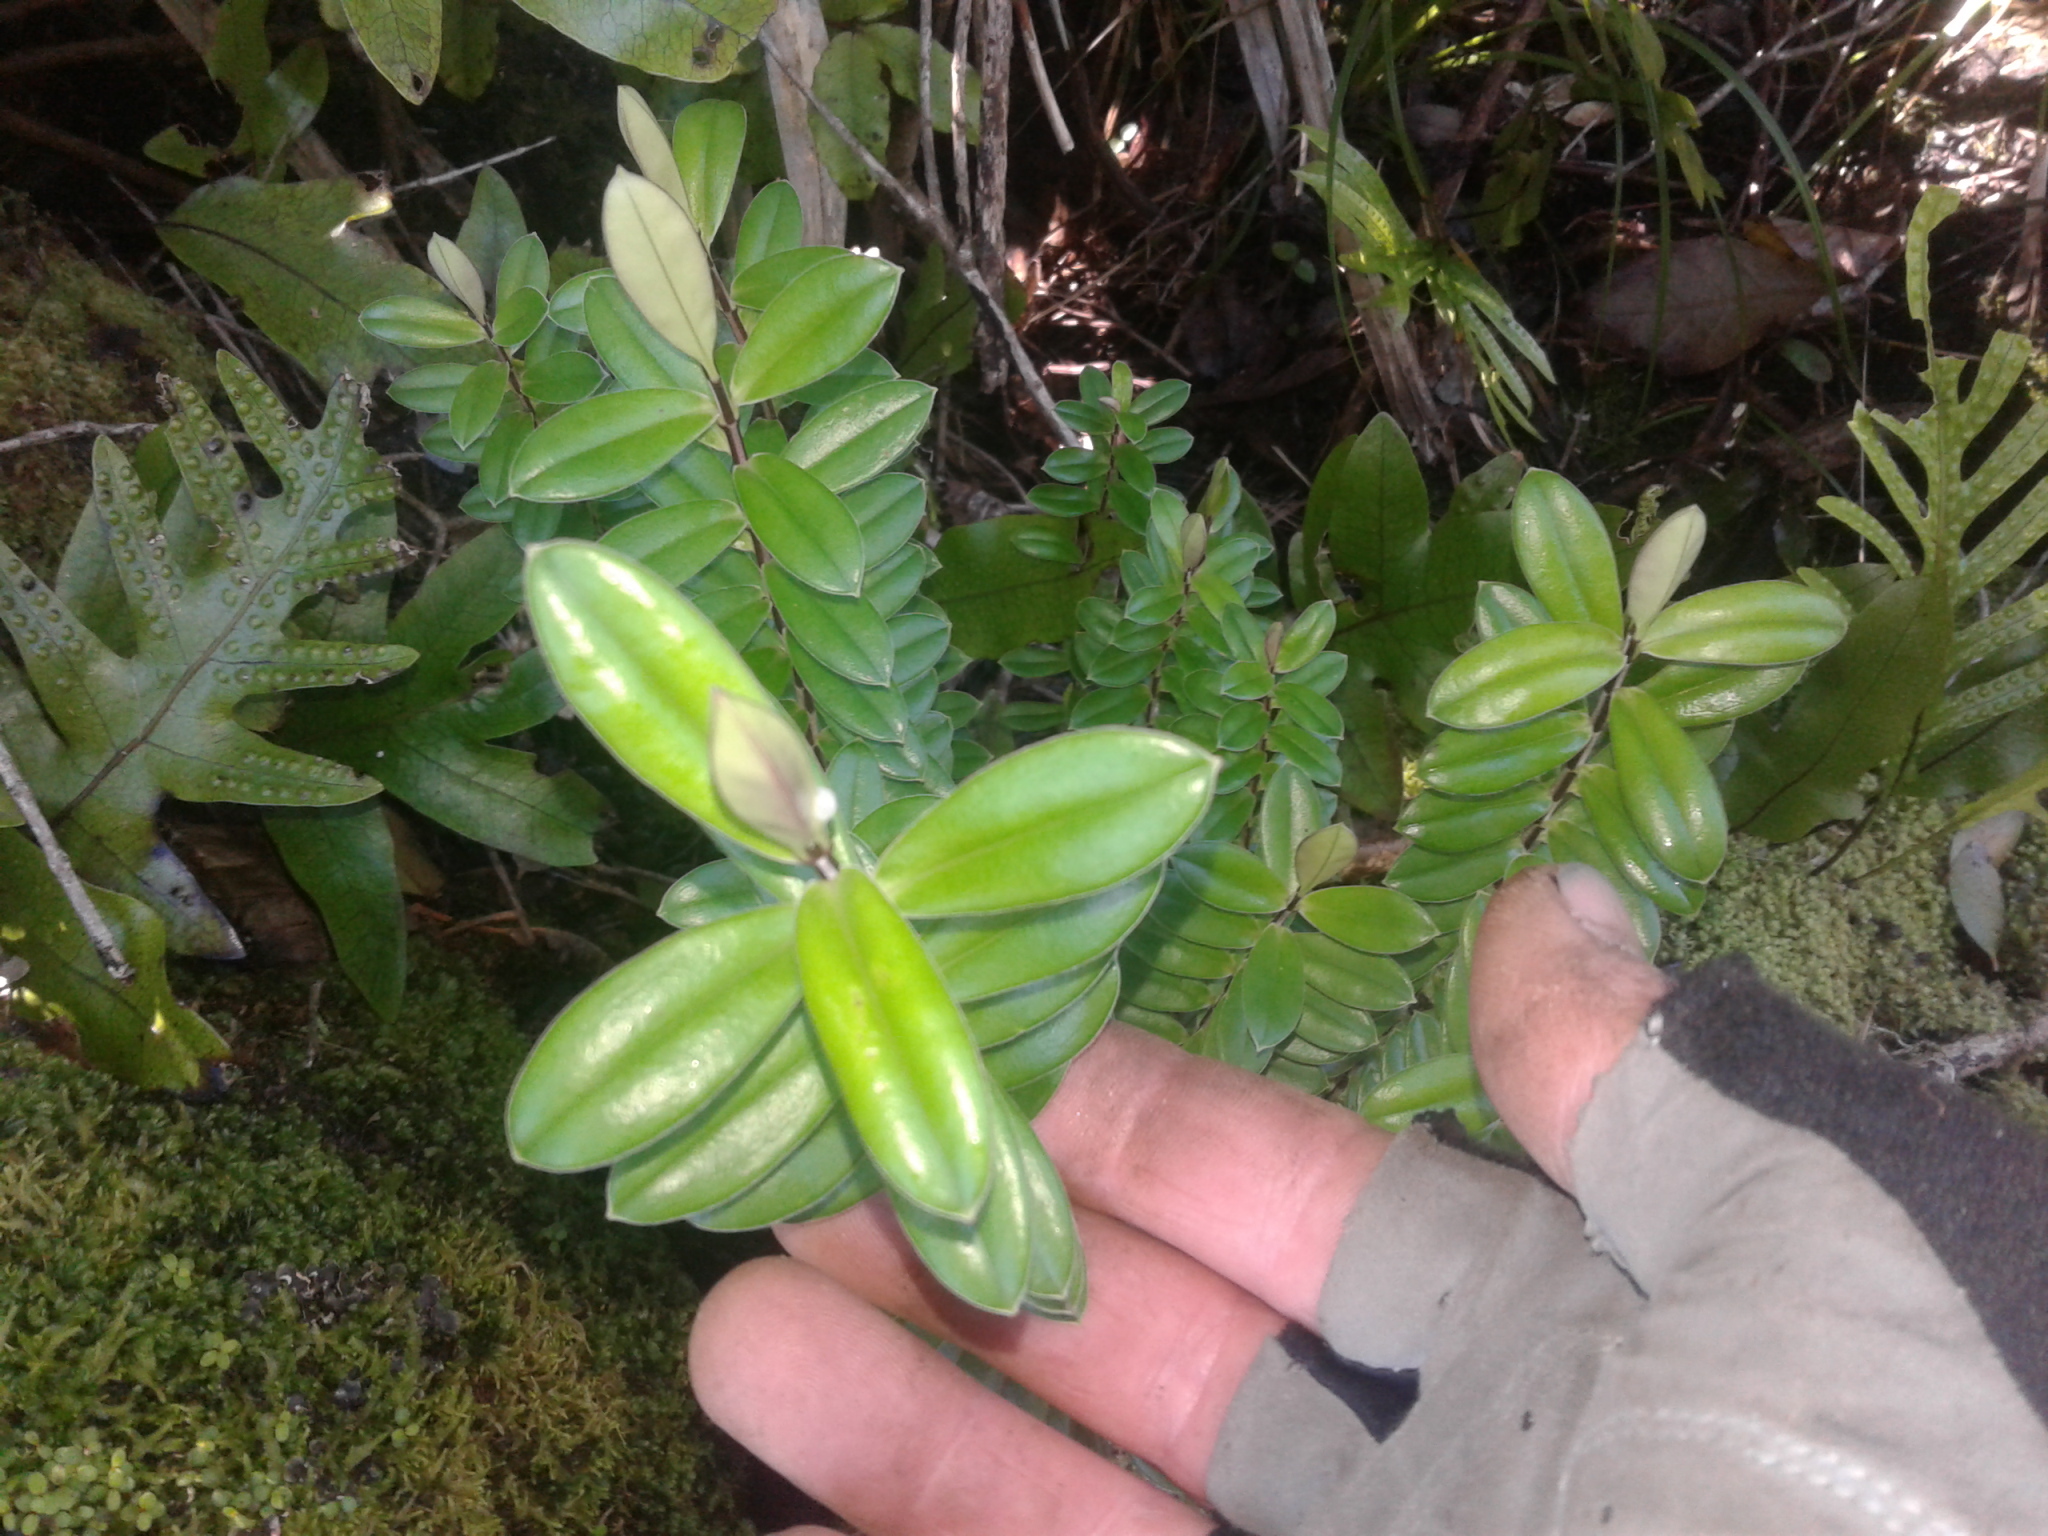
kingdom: Plantae
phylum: Tracheophyta
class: Magnoliopsida
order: Lamiales
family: Plantaginaceae
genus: Veronica
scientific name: Veronica elliptica
